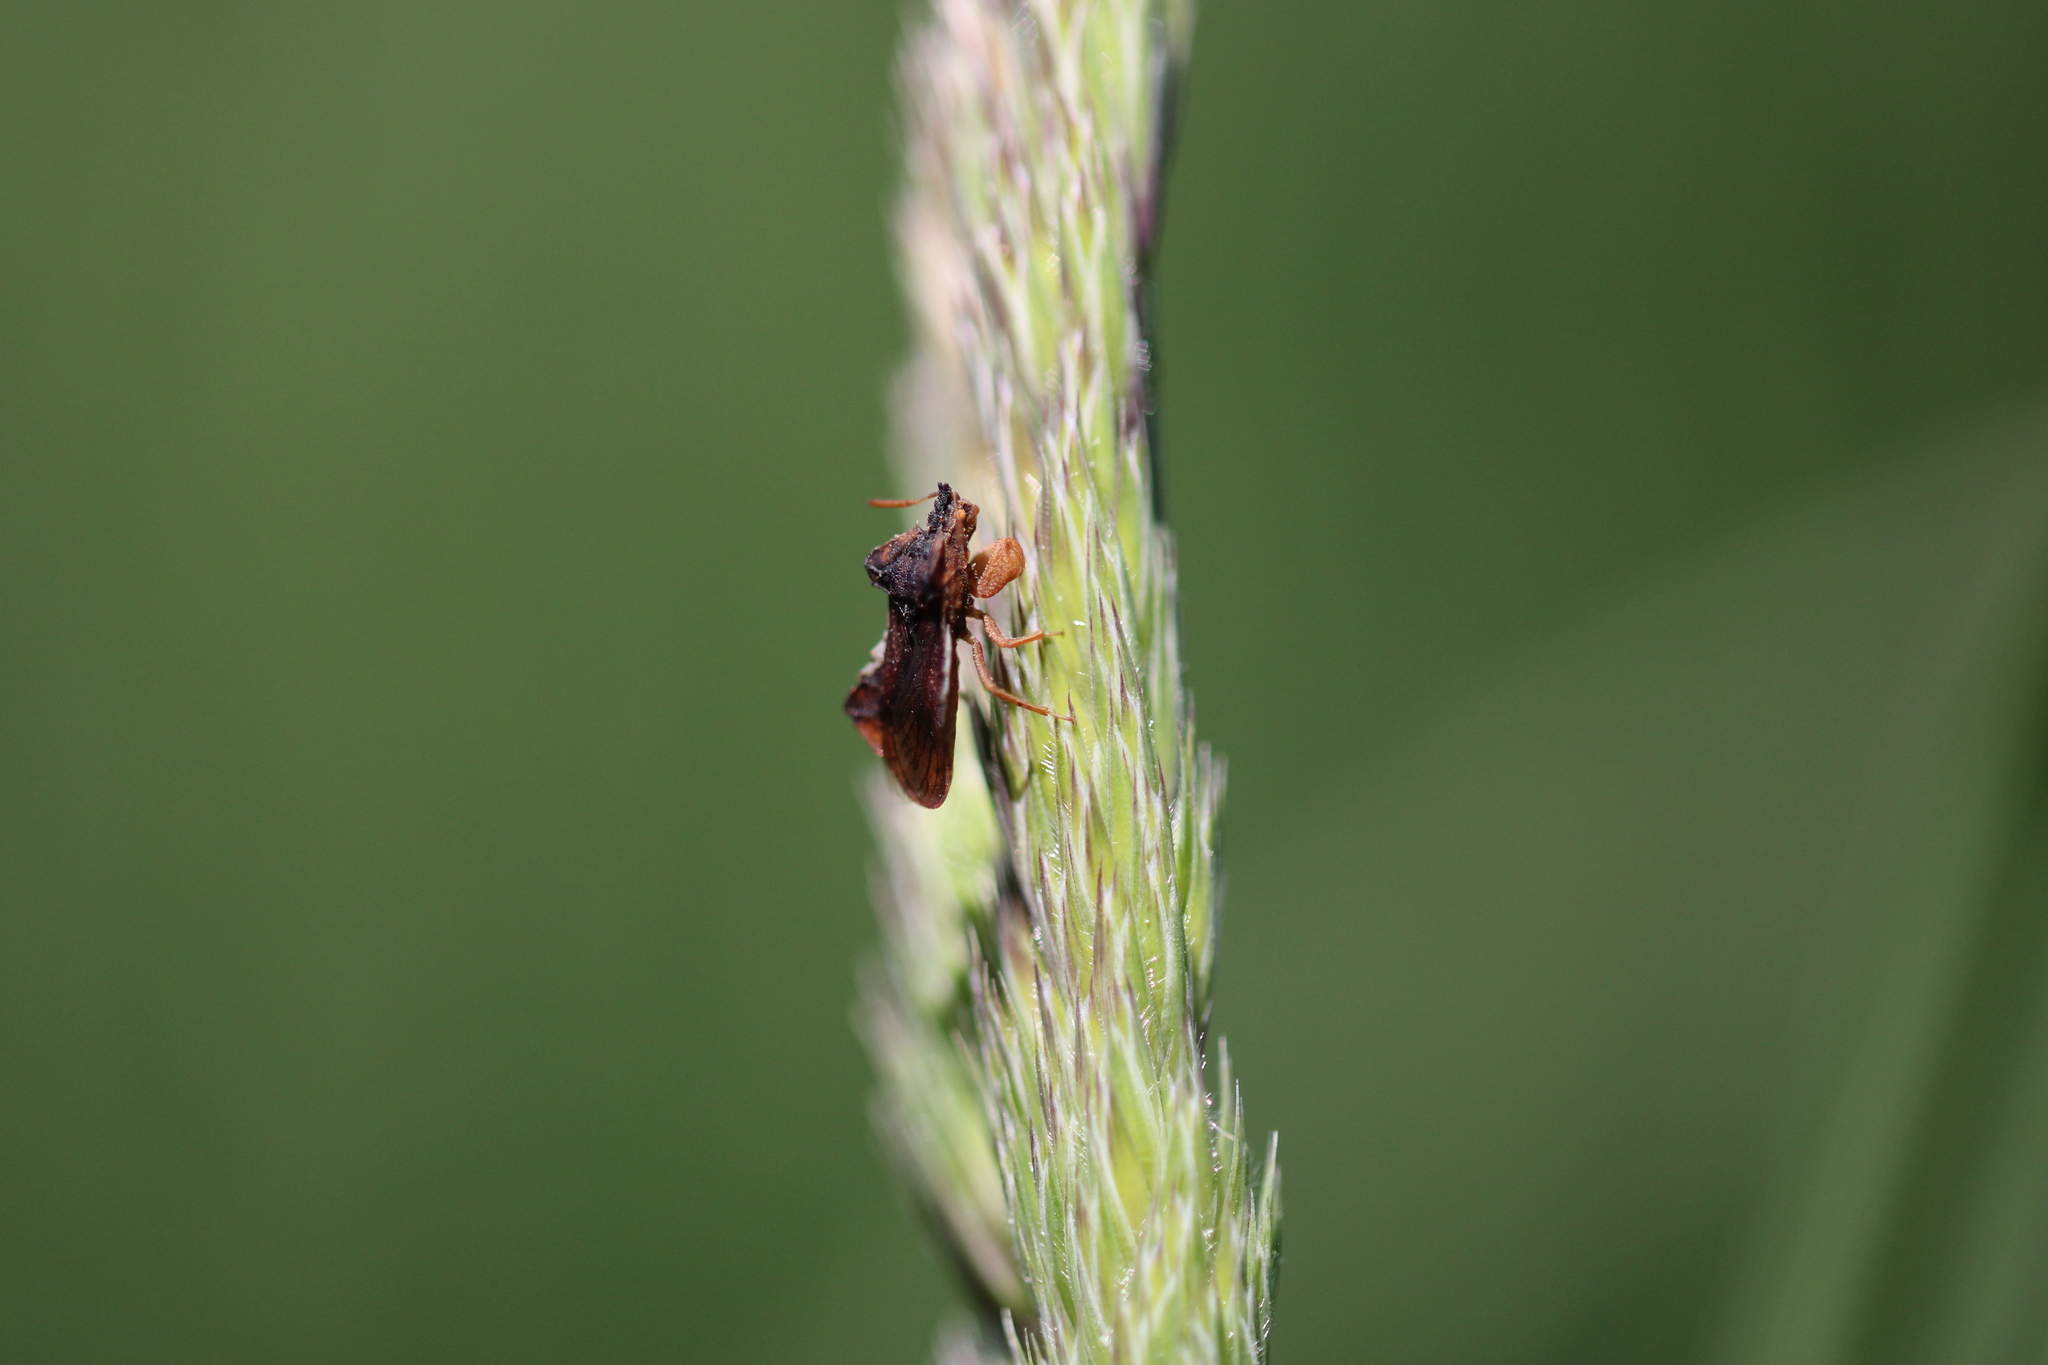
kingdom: Animalia
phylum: Arthropoda
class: Insecta
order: Hemiptera
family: Reduviidae
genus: Phymata
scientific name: Phymata crassipes
